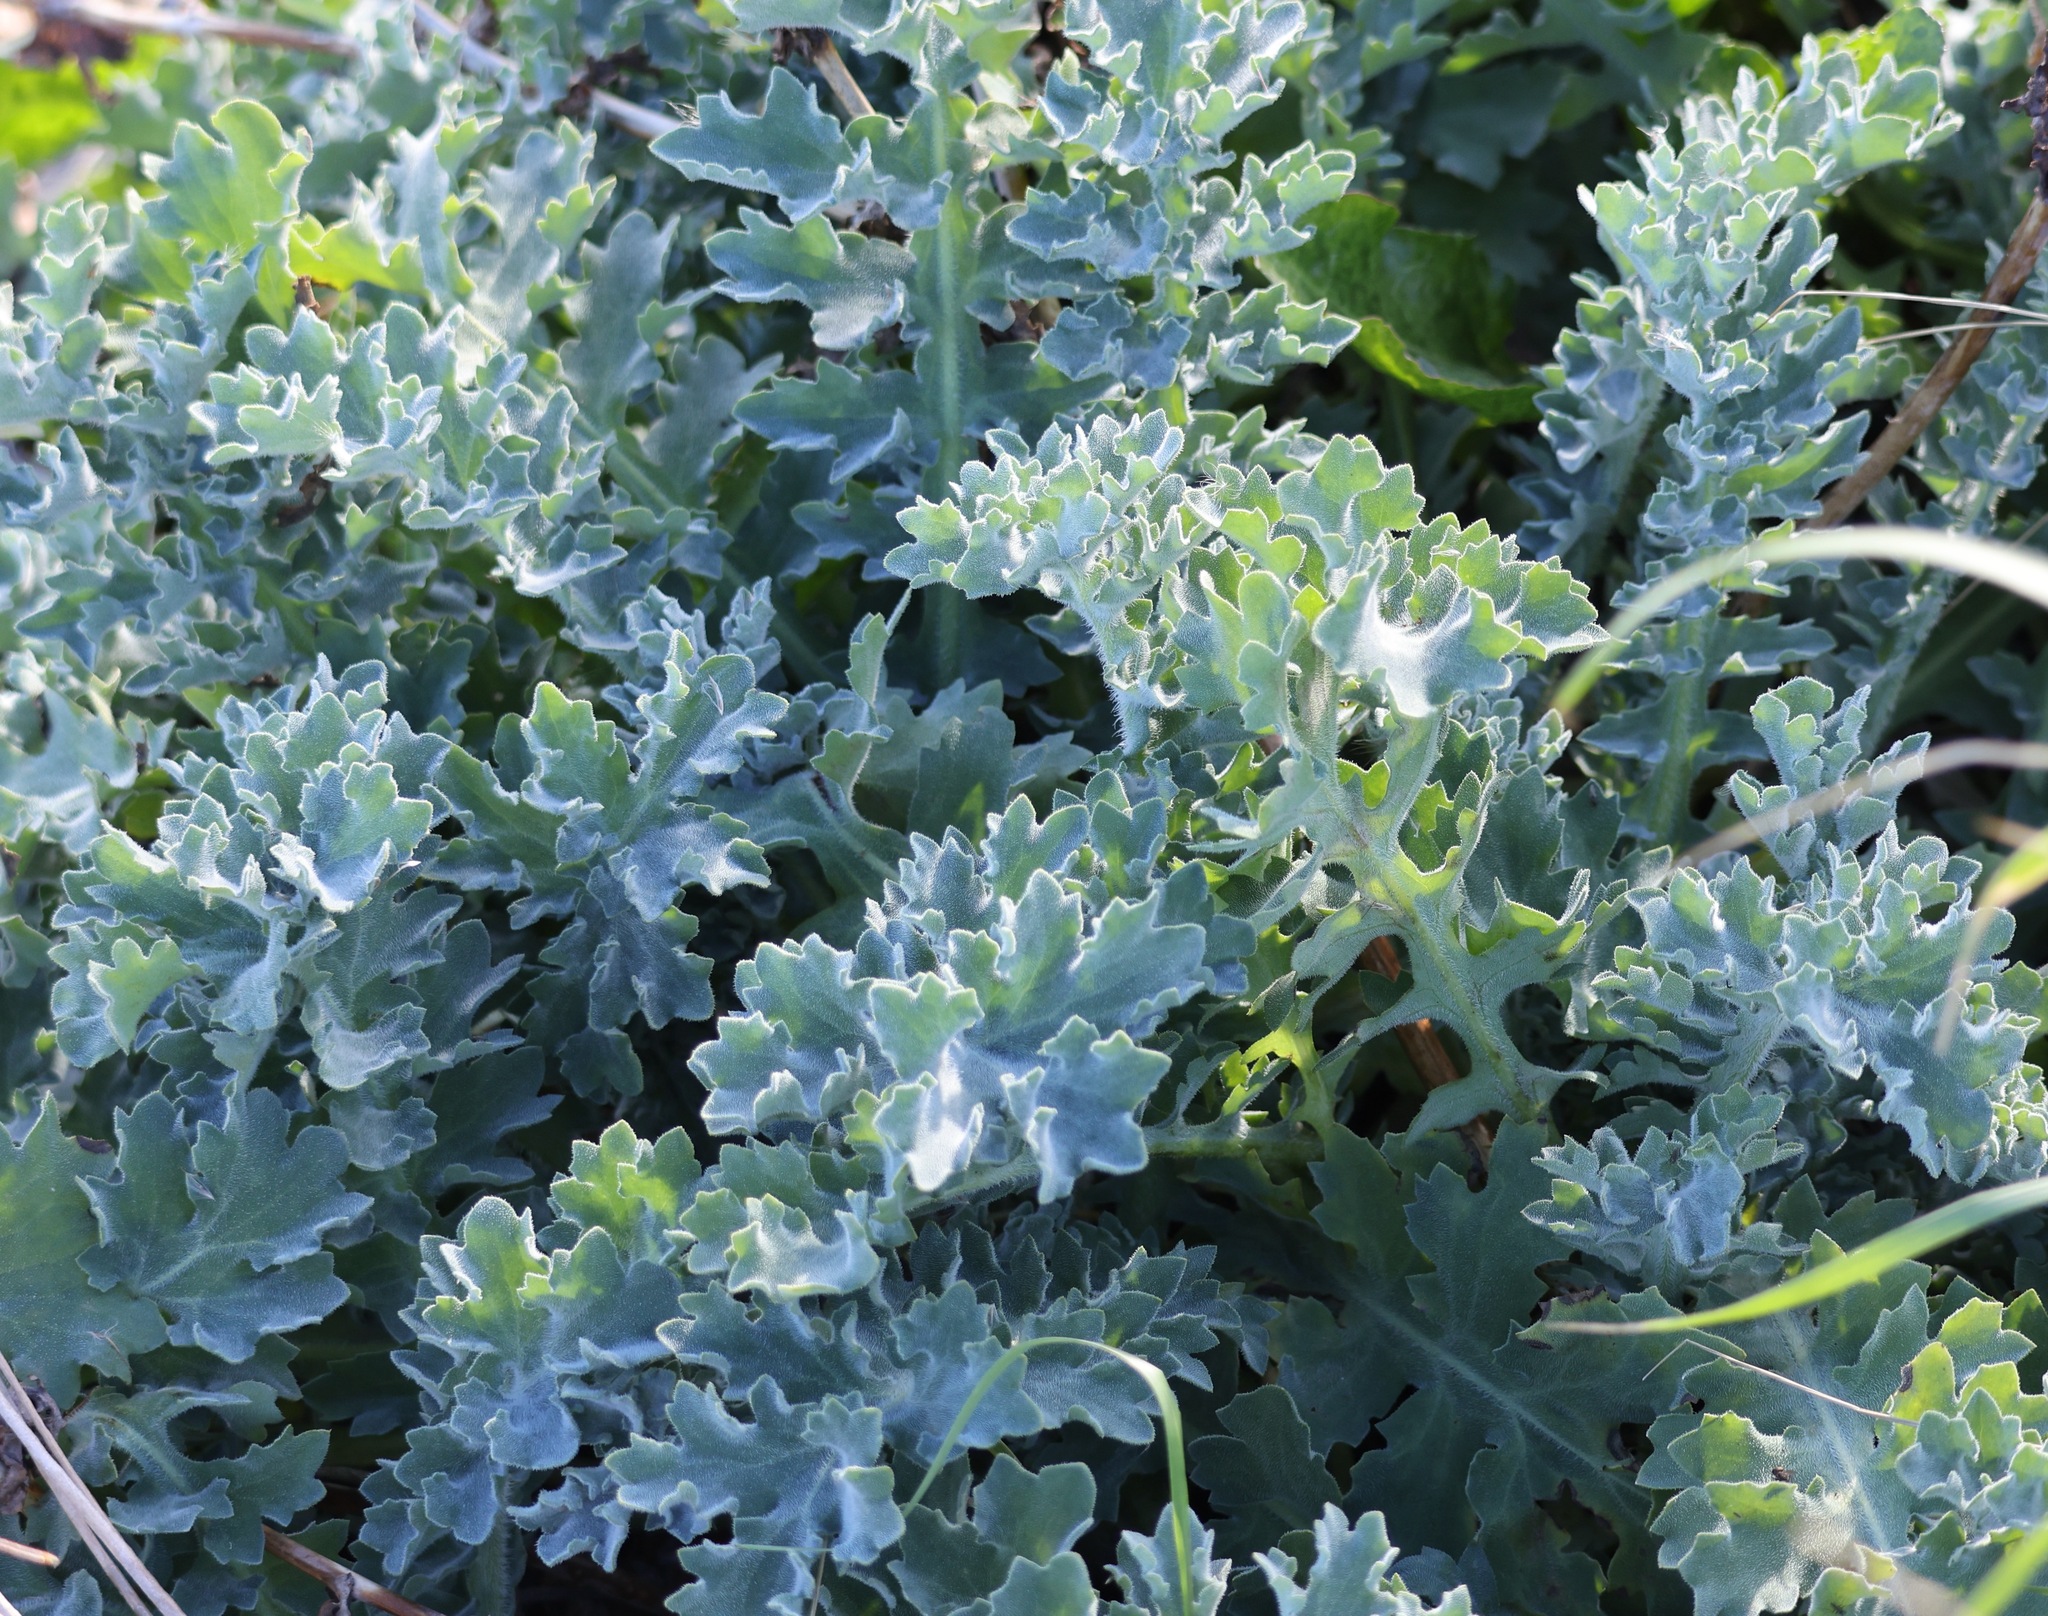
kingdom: Plantae
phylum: Tracheophyta
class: Magnoliopsida
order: Ranunculales
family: Papaveraceae
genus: Glaucium
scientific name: Glaucium flavum
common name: Yellow horned-poppy
